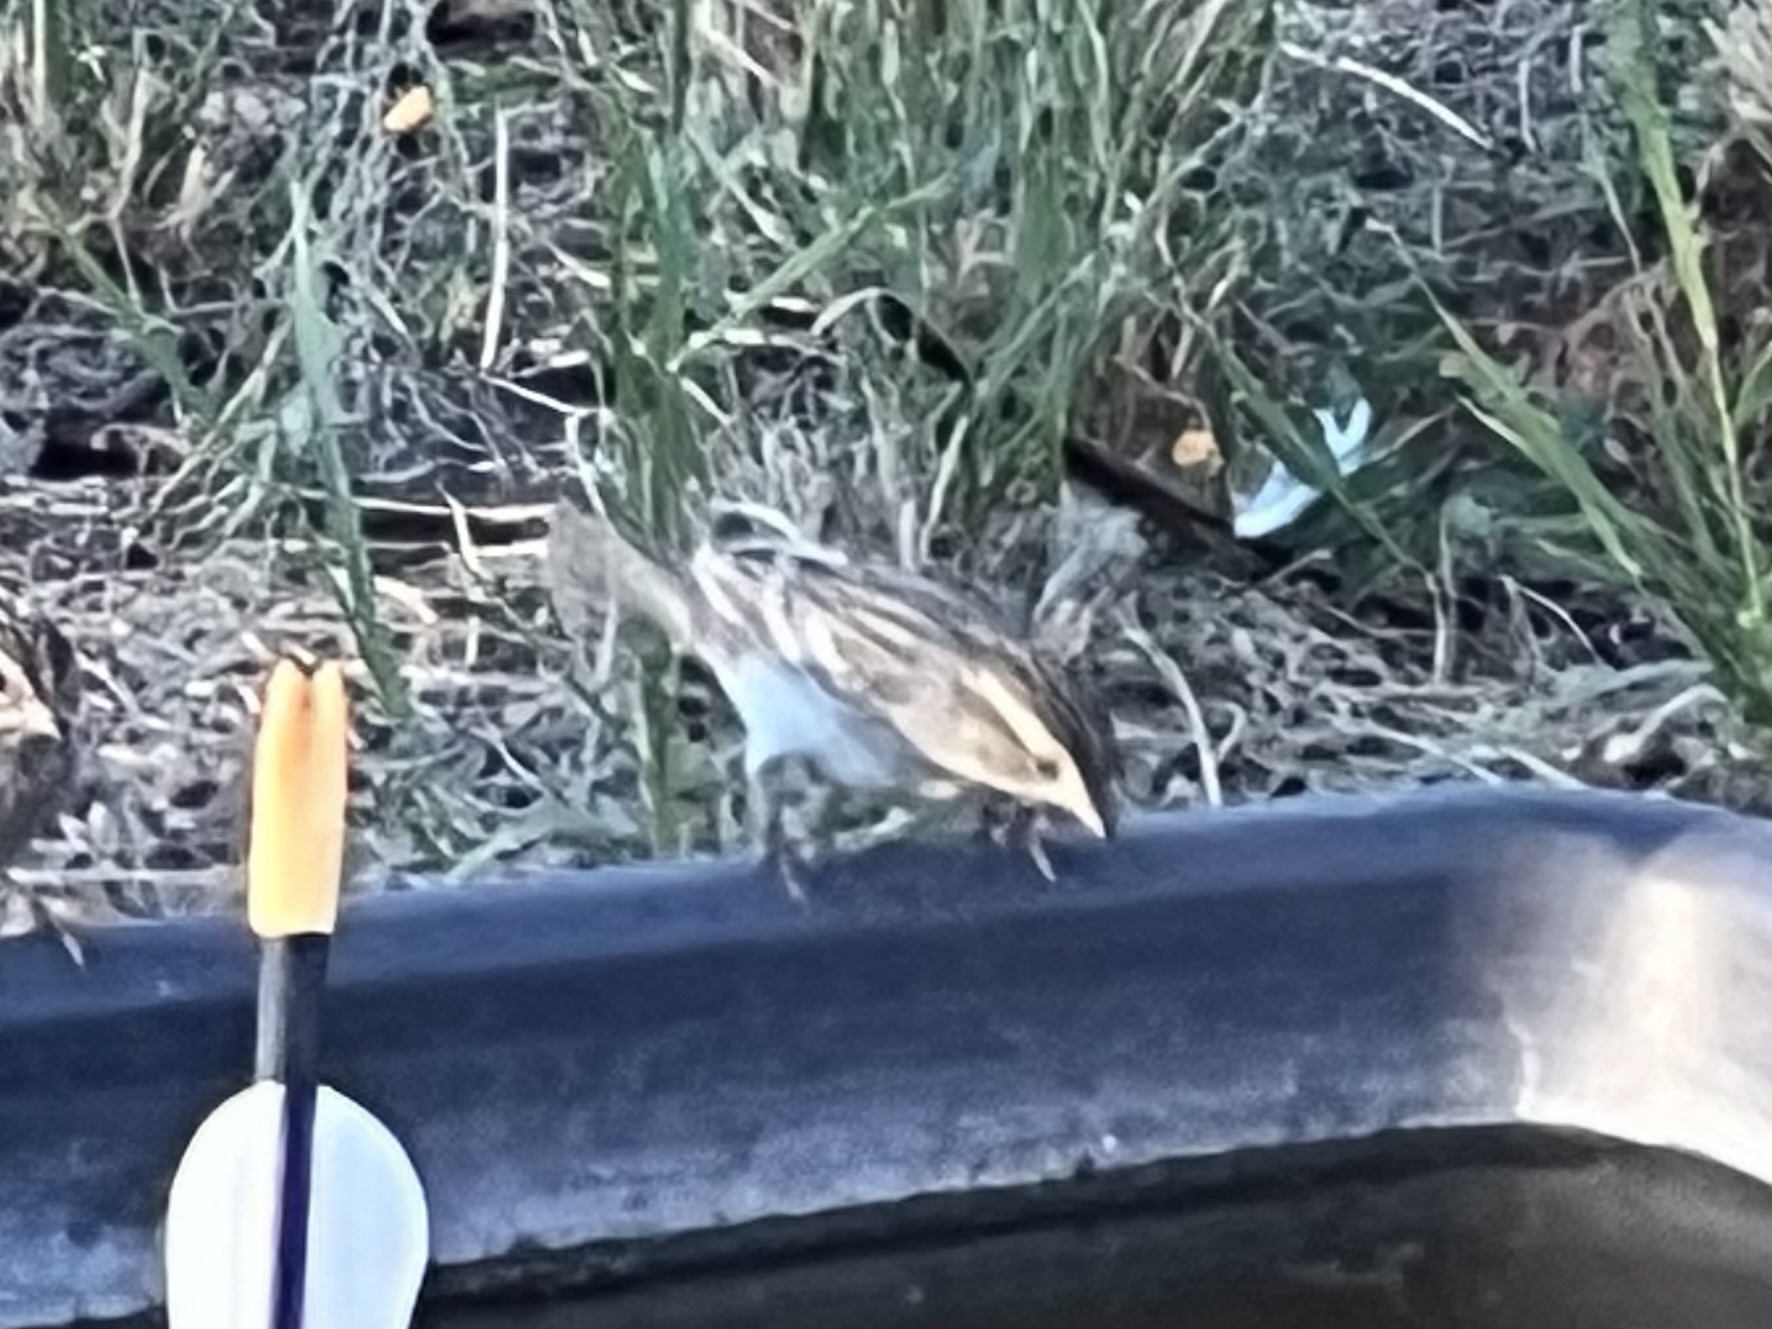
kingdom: Animalia
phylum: Chordata
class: Aves
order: Passeriformes
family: Passerellidae
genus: Spizella
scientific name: Spizella pallida
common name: Clay-colored sparrow
